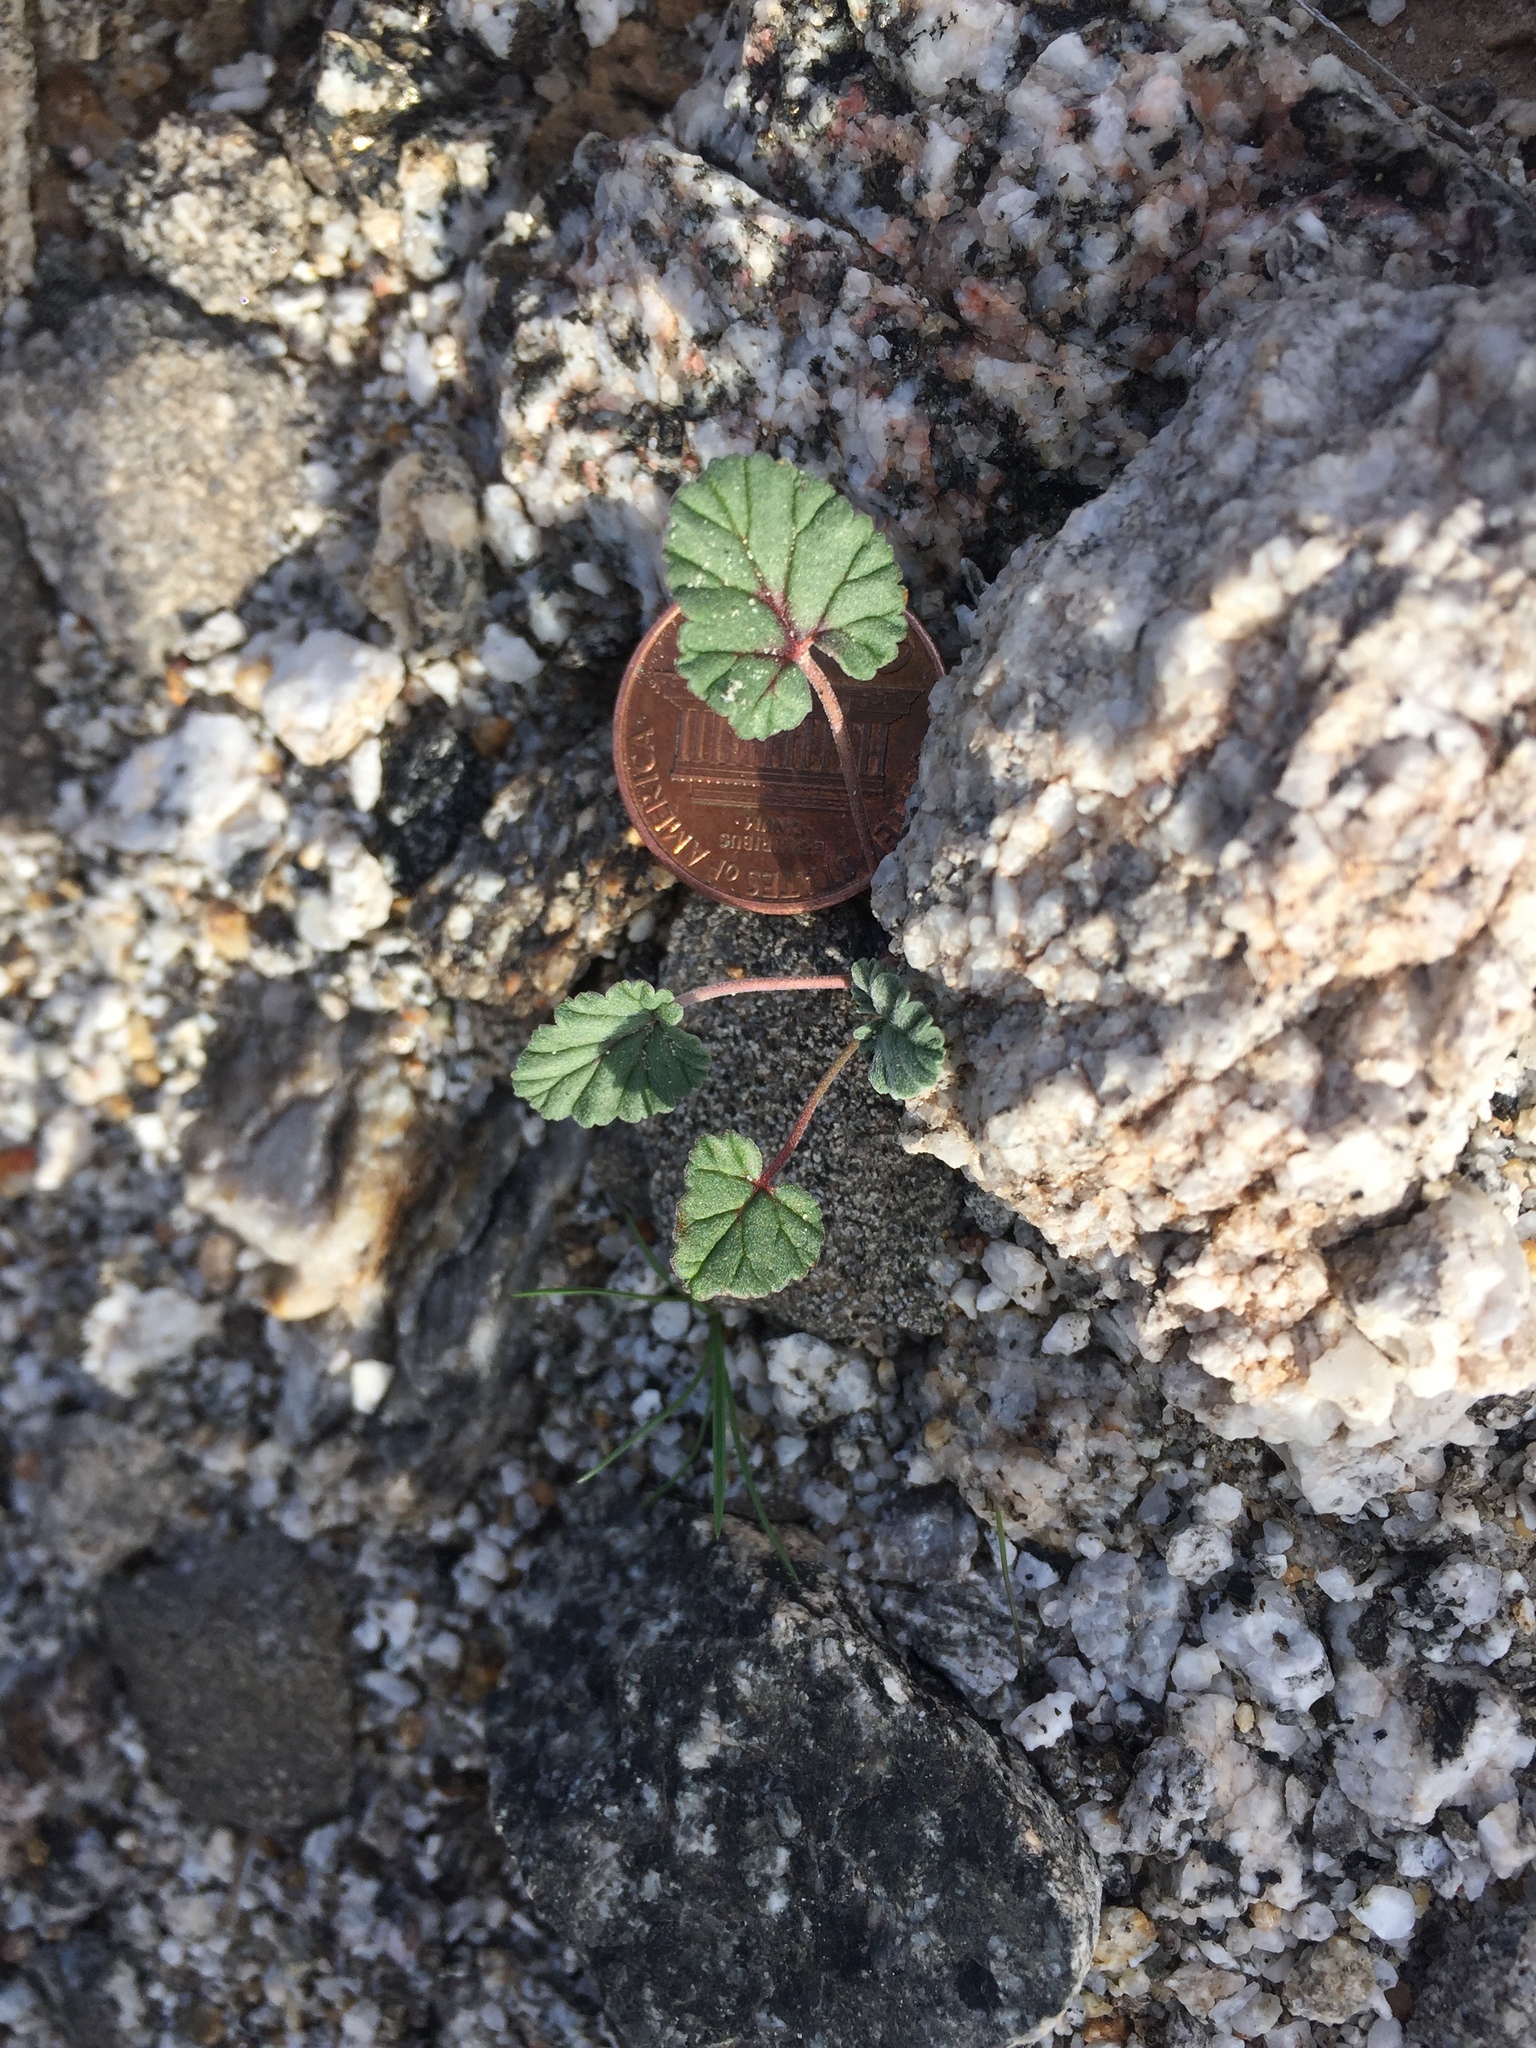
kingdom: Plantae
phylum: Tracheophyta
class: Magnoliopsida
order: Geraniales
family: Geraniaceae
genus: Erodium
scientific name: Erodium texanum
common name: Texas stork's-bill
